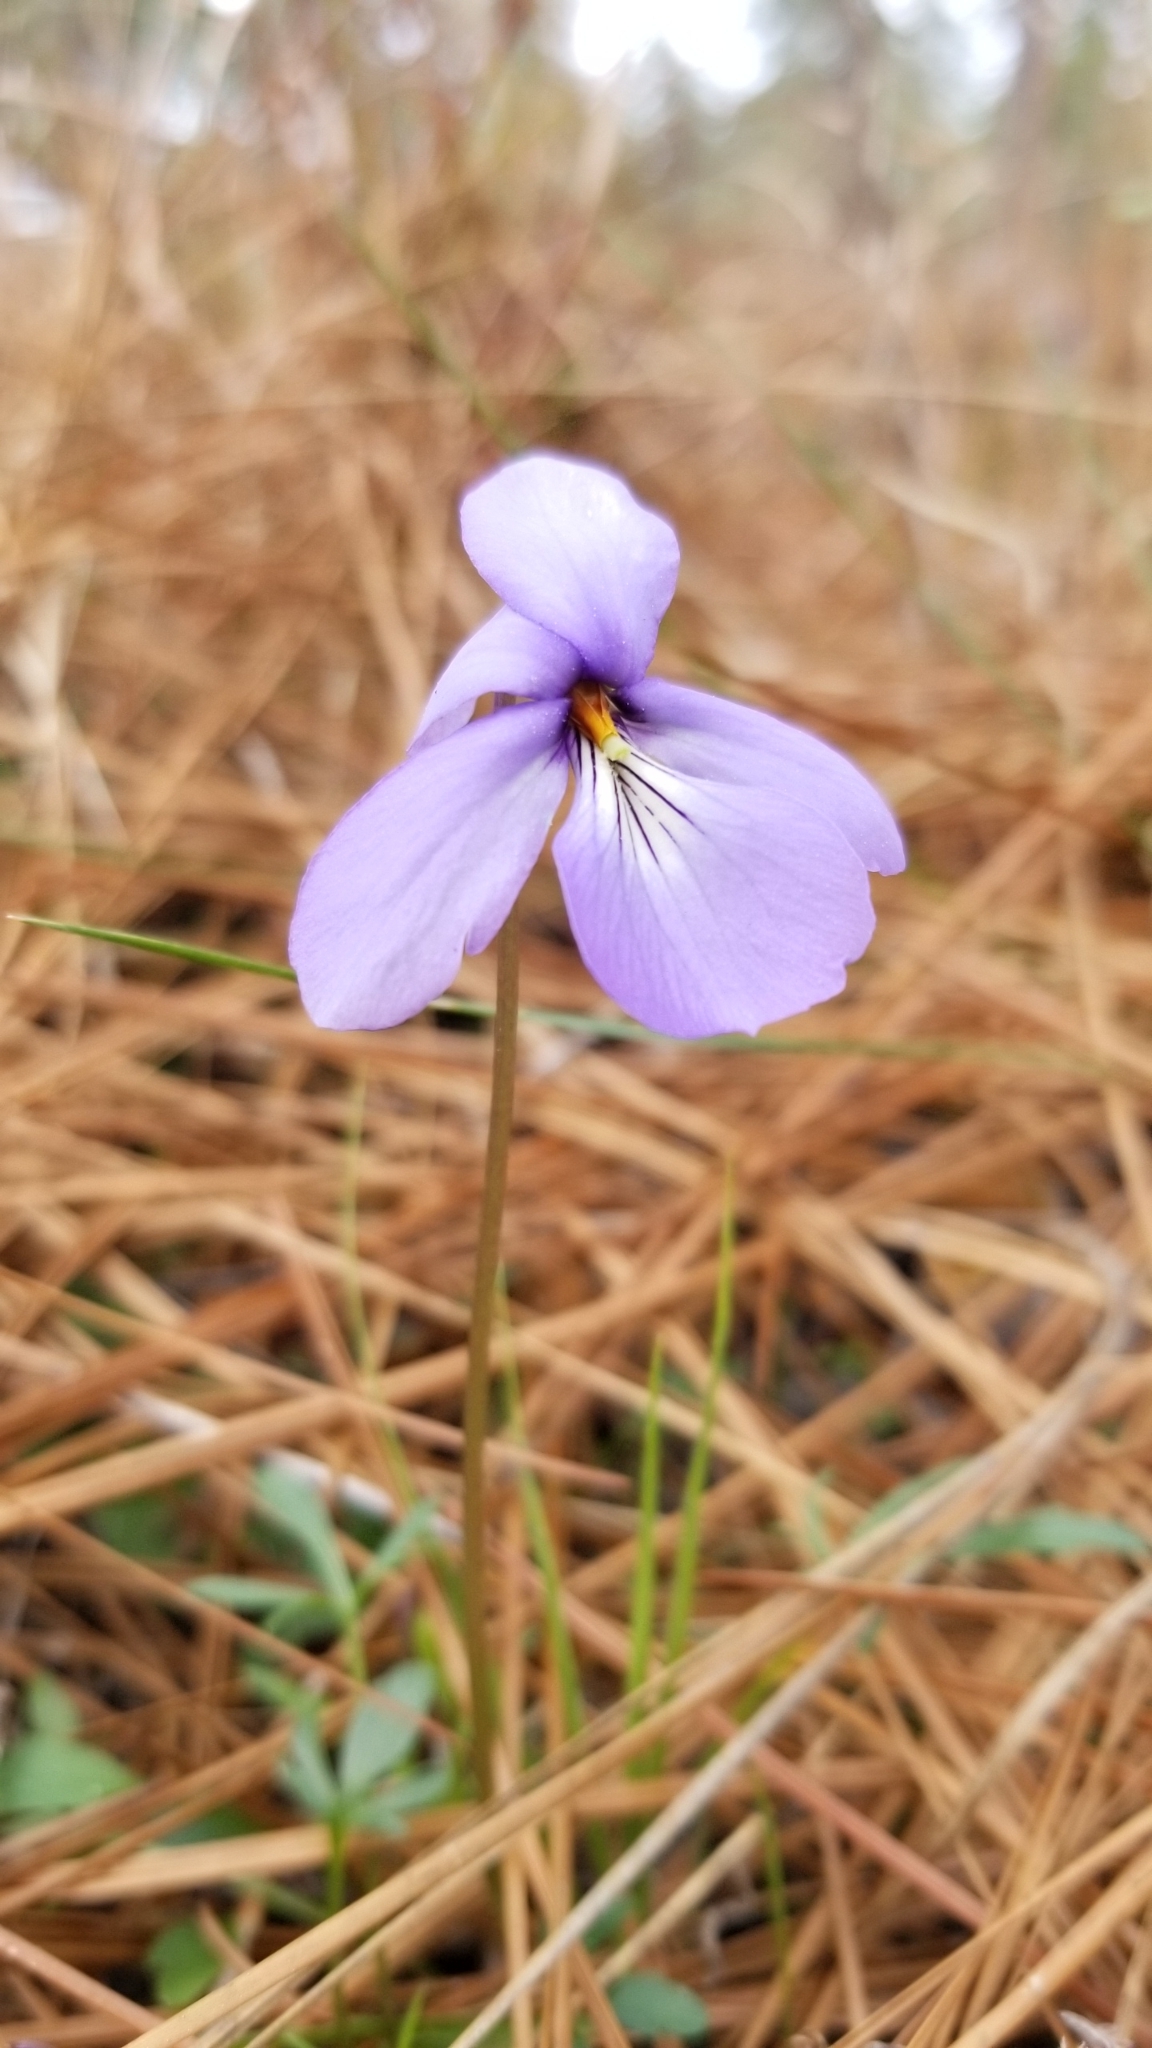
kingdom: Plantae
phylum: Tracheophyta
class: Magnoliopsida
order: Malpighiales
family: Violaceae
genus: Viola
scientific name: Viola pedata
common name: Pansy violet
